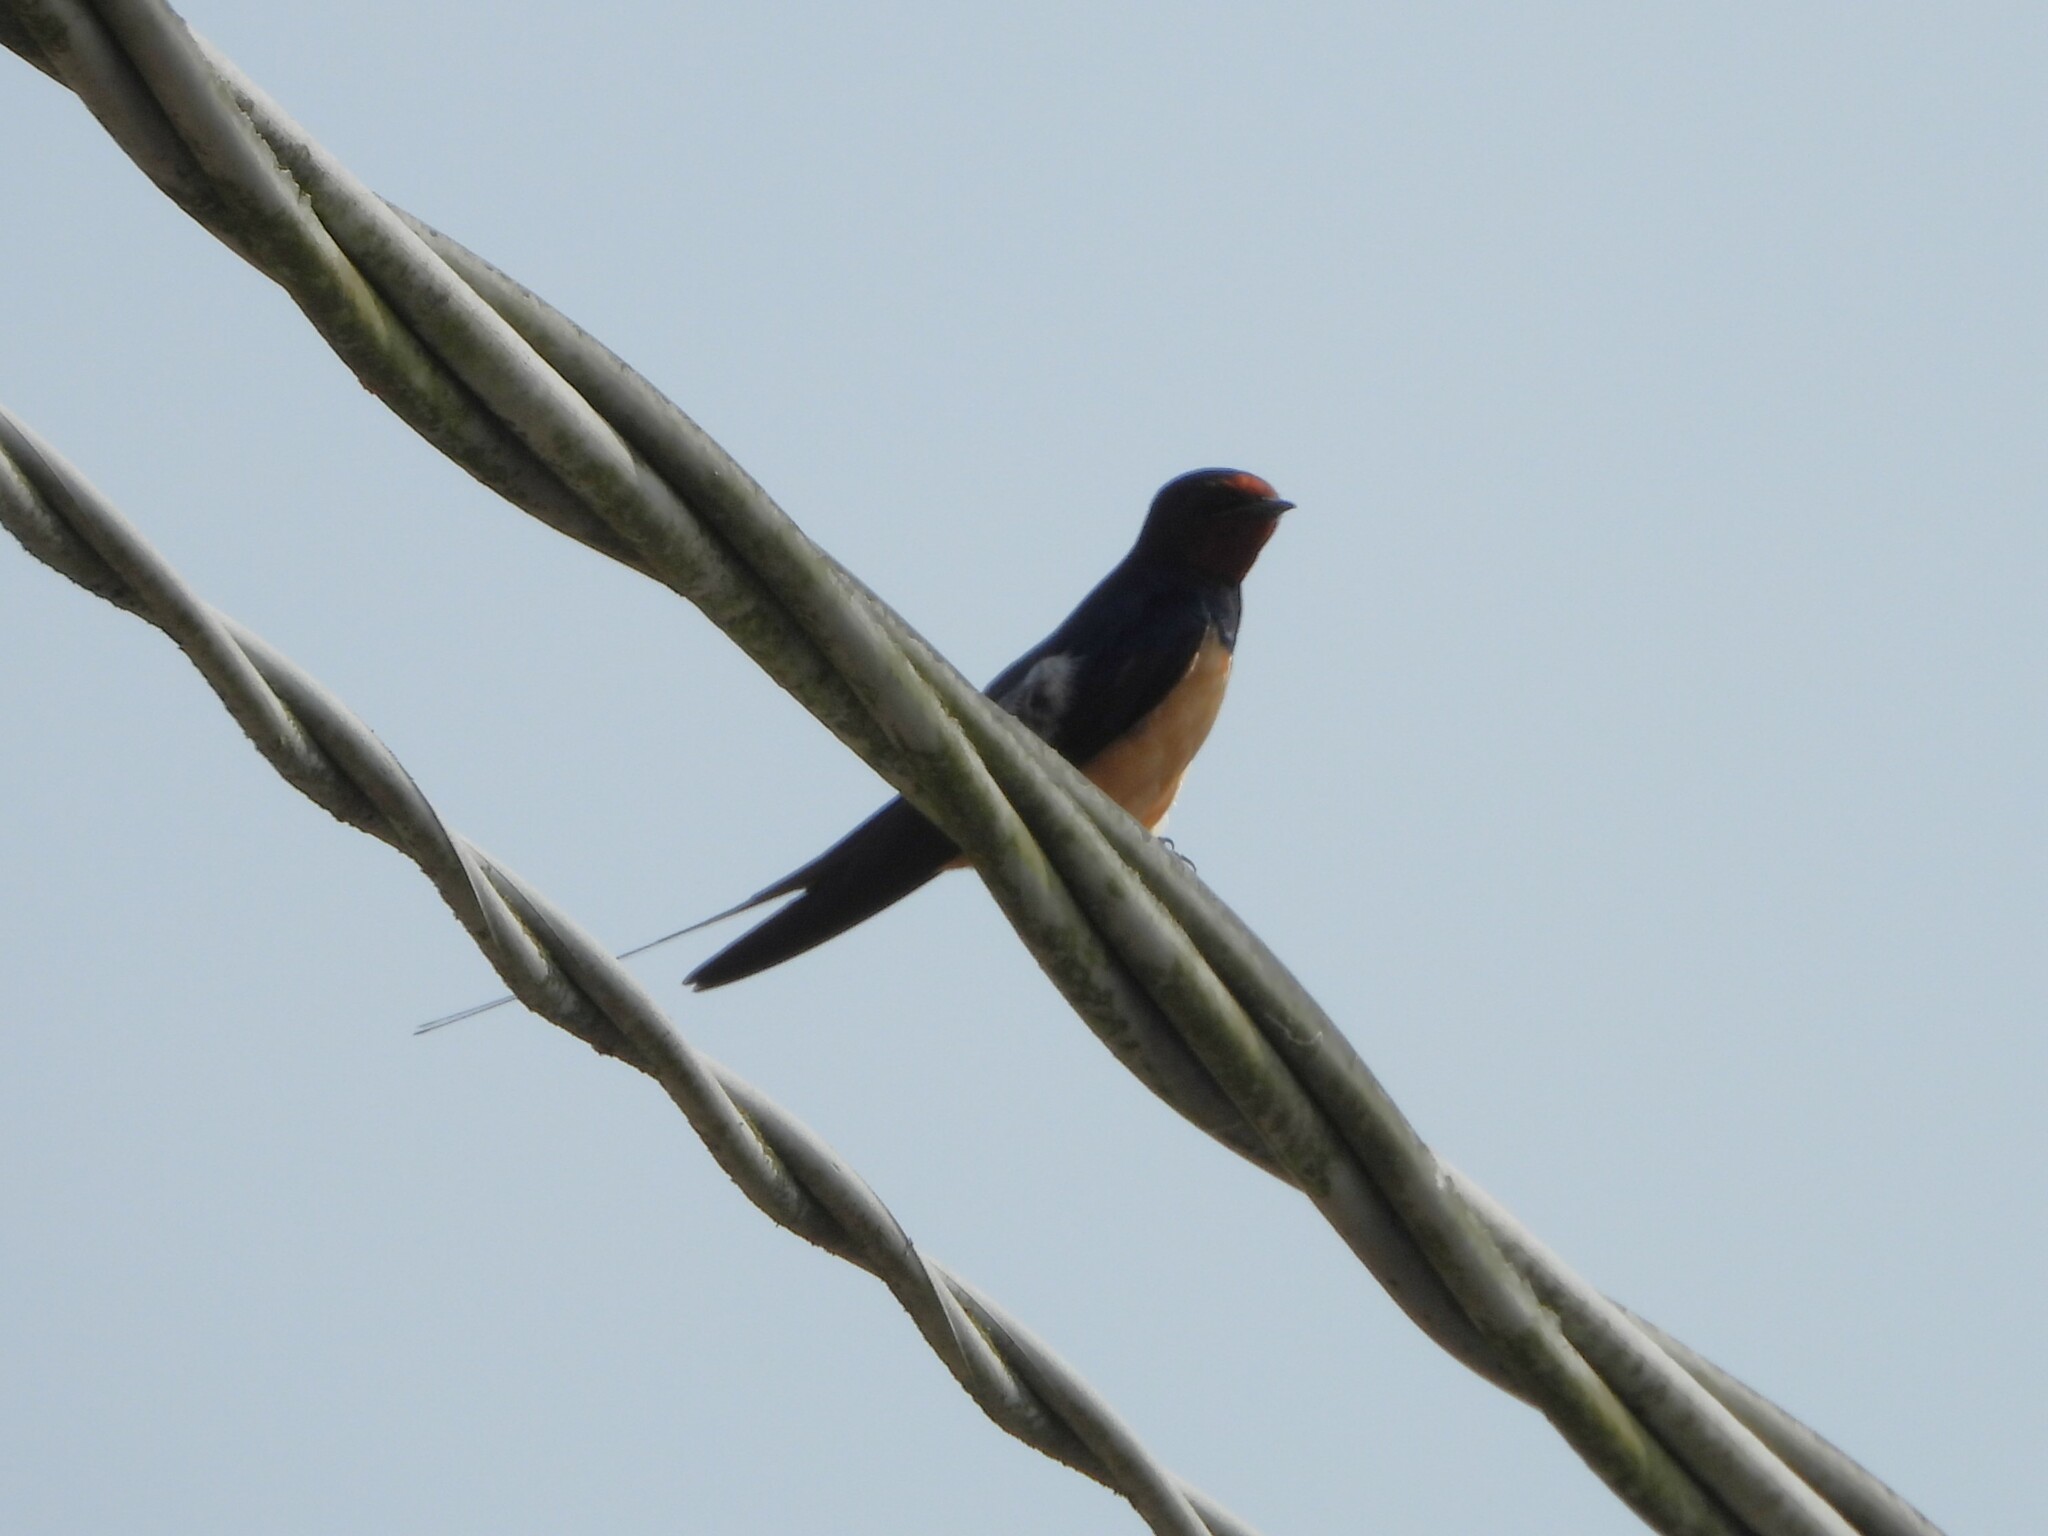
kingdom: Animalia
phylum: Chordata
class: Aves
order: Passeriformes
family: Hirundinidae
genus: Hirundo
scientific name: Hirundo rustica
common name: Barn swallow
